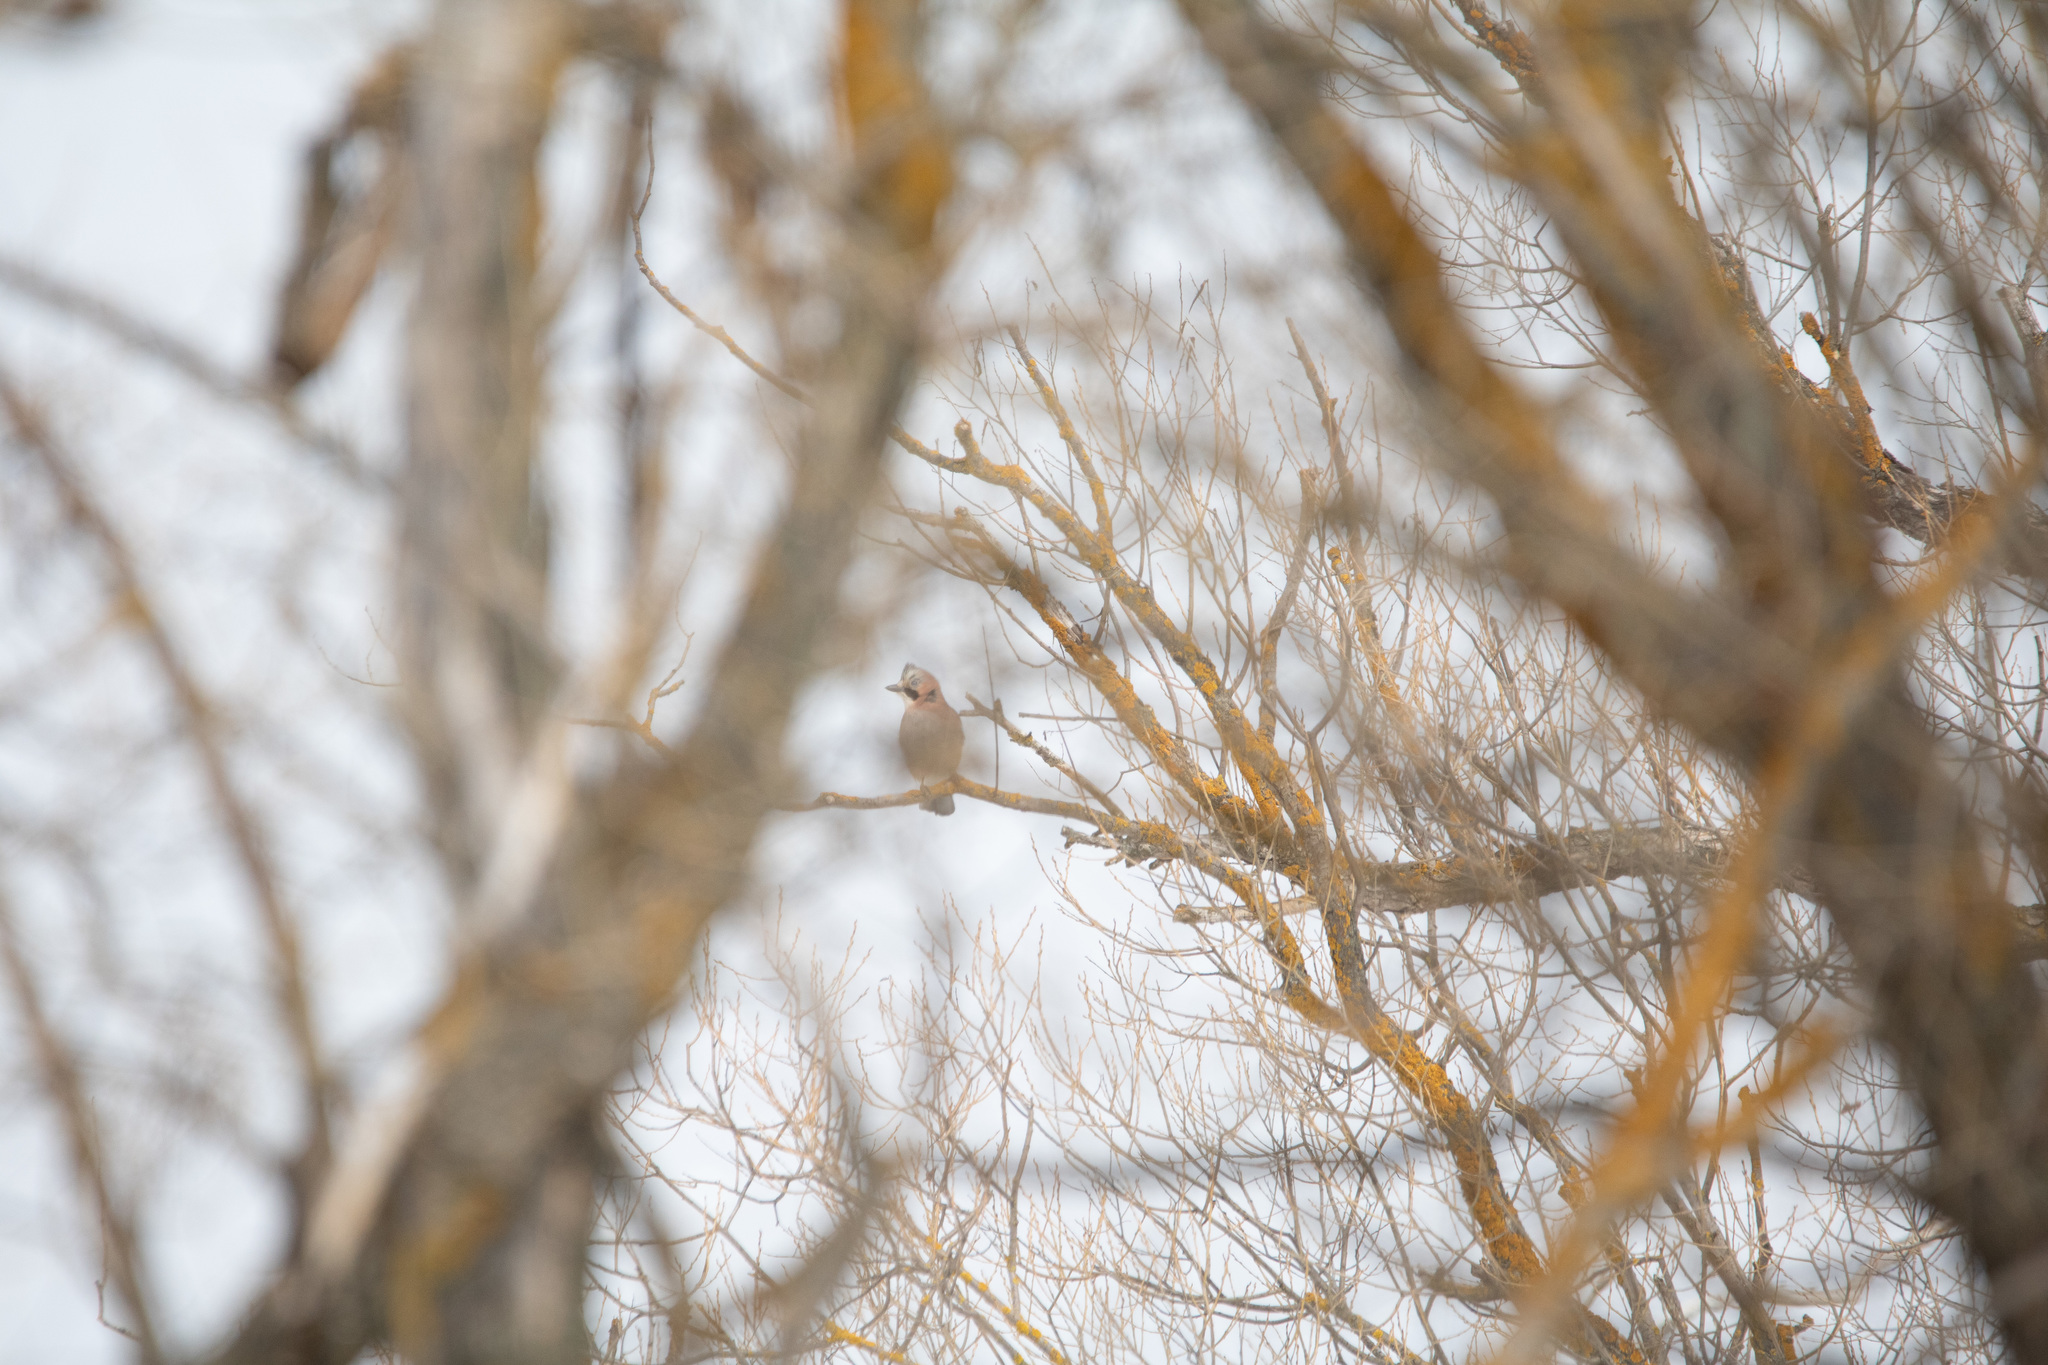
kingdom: Animalia
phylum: Chordata
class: Aves
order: Passeriformes
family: Corvidae
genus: Garrulus
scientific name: Garrulus glandarius
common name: Eurasian jay
